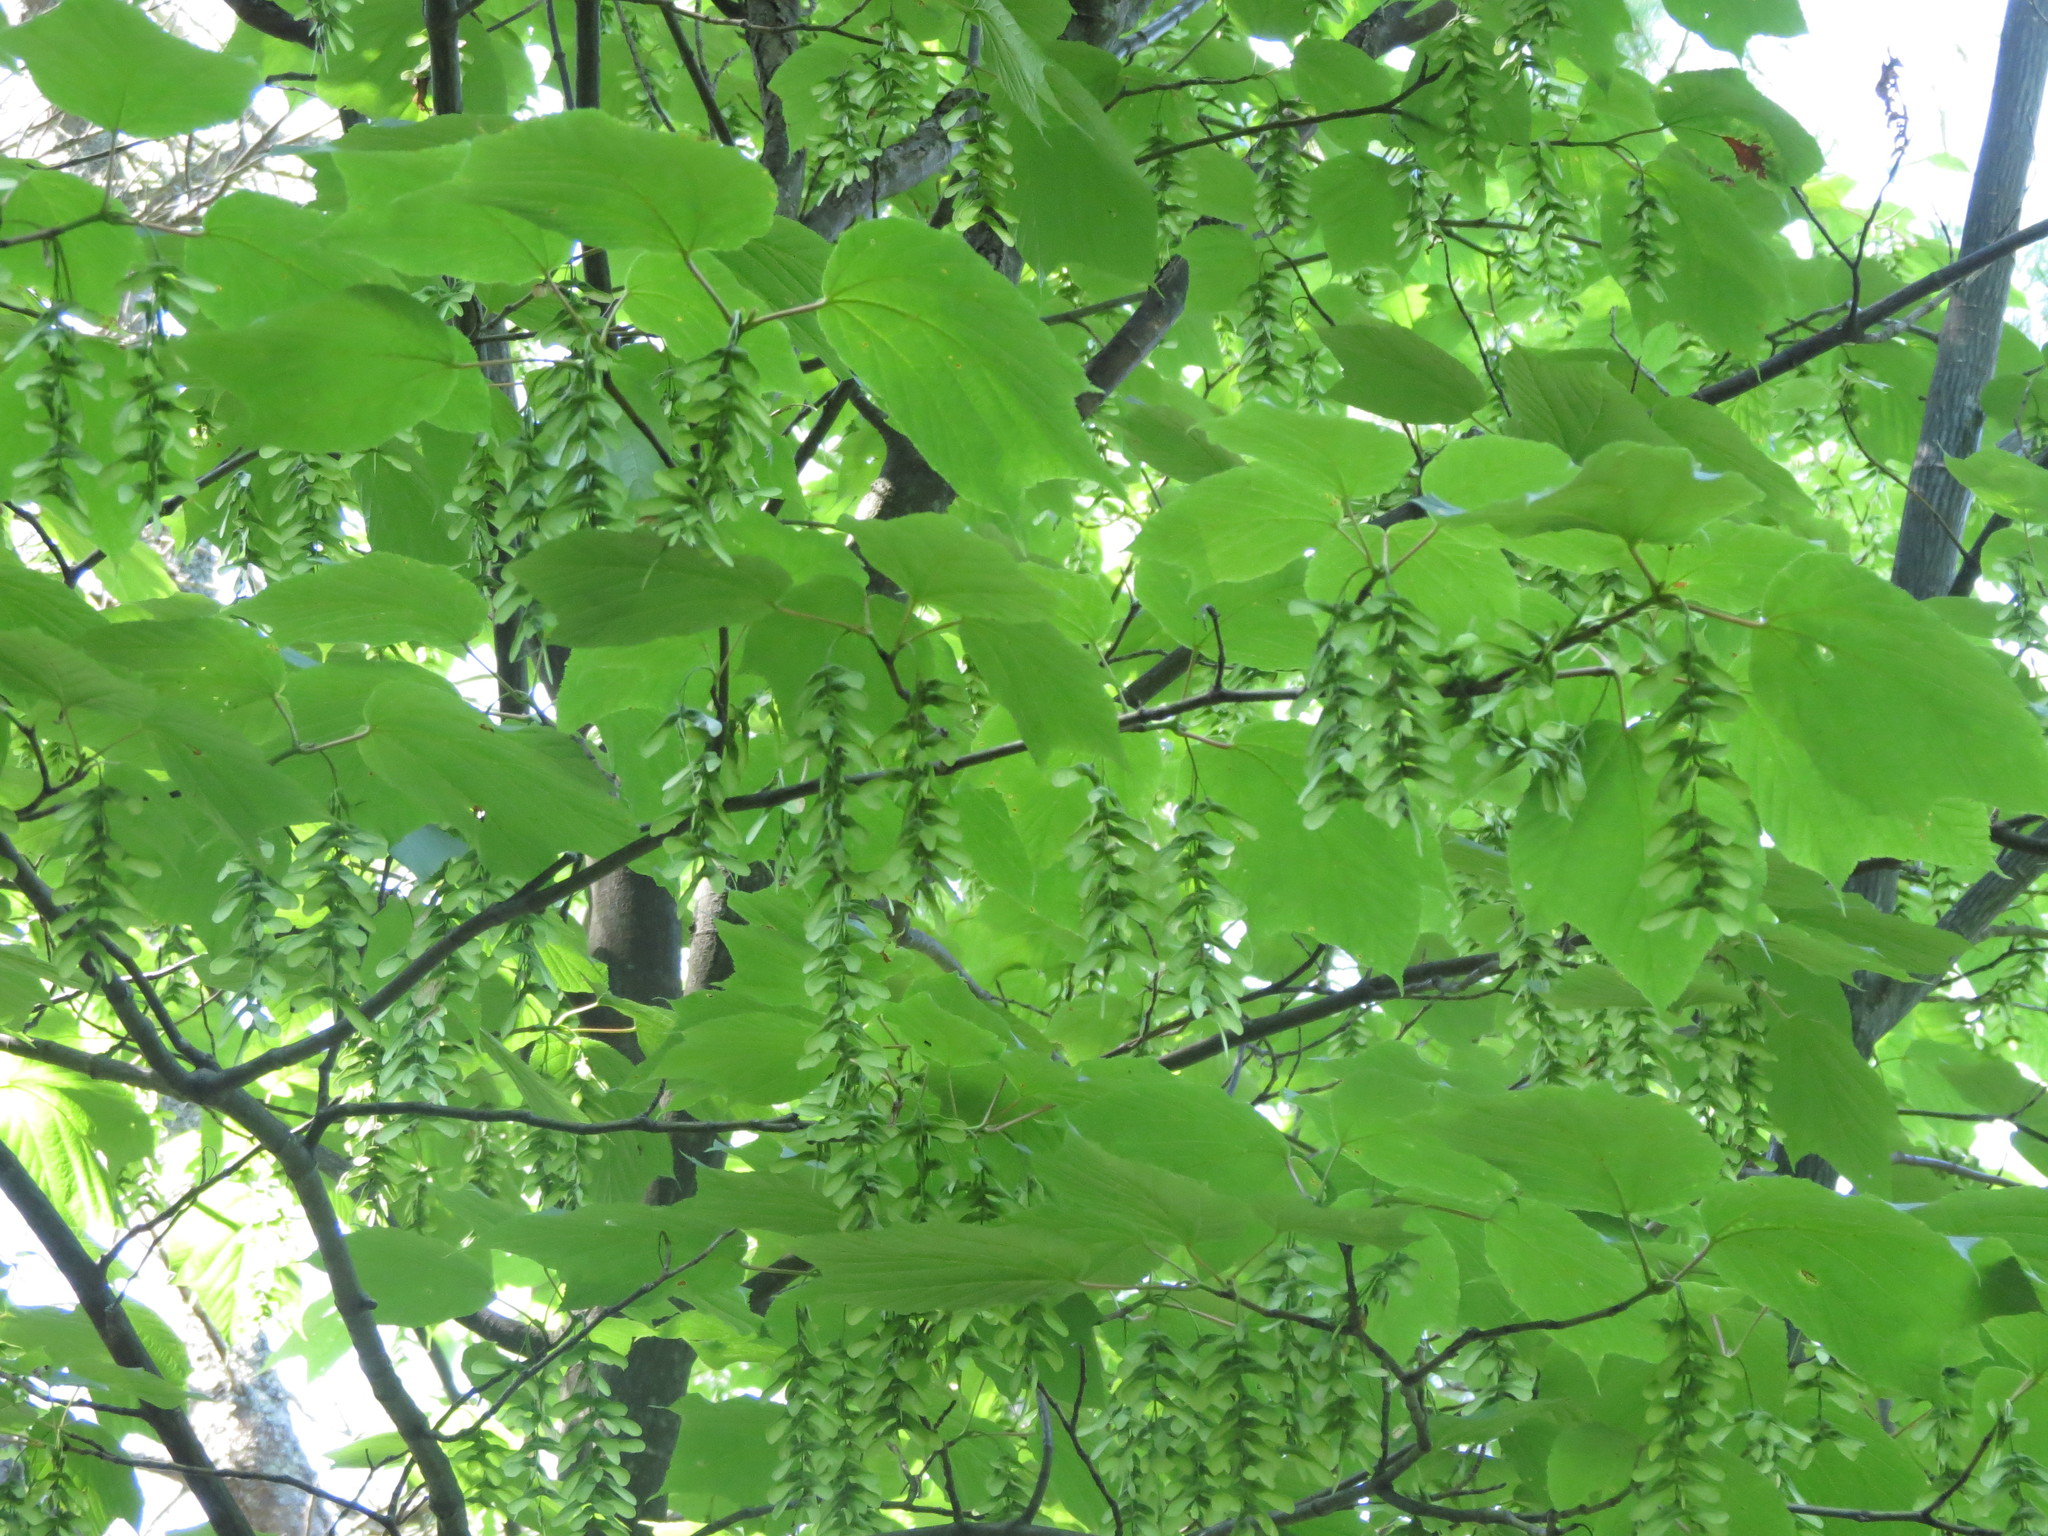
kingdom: Plantae
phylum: Tracheophyta
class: Magnoliopsida
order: Sapindales
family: Sapindaceae
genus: Acer
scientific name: Acer pensylvanicum
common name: Moosewood
